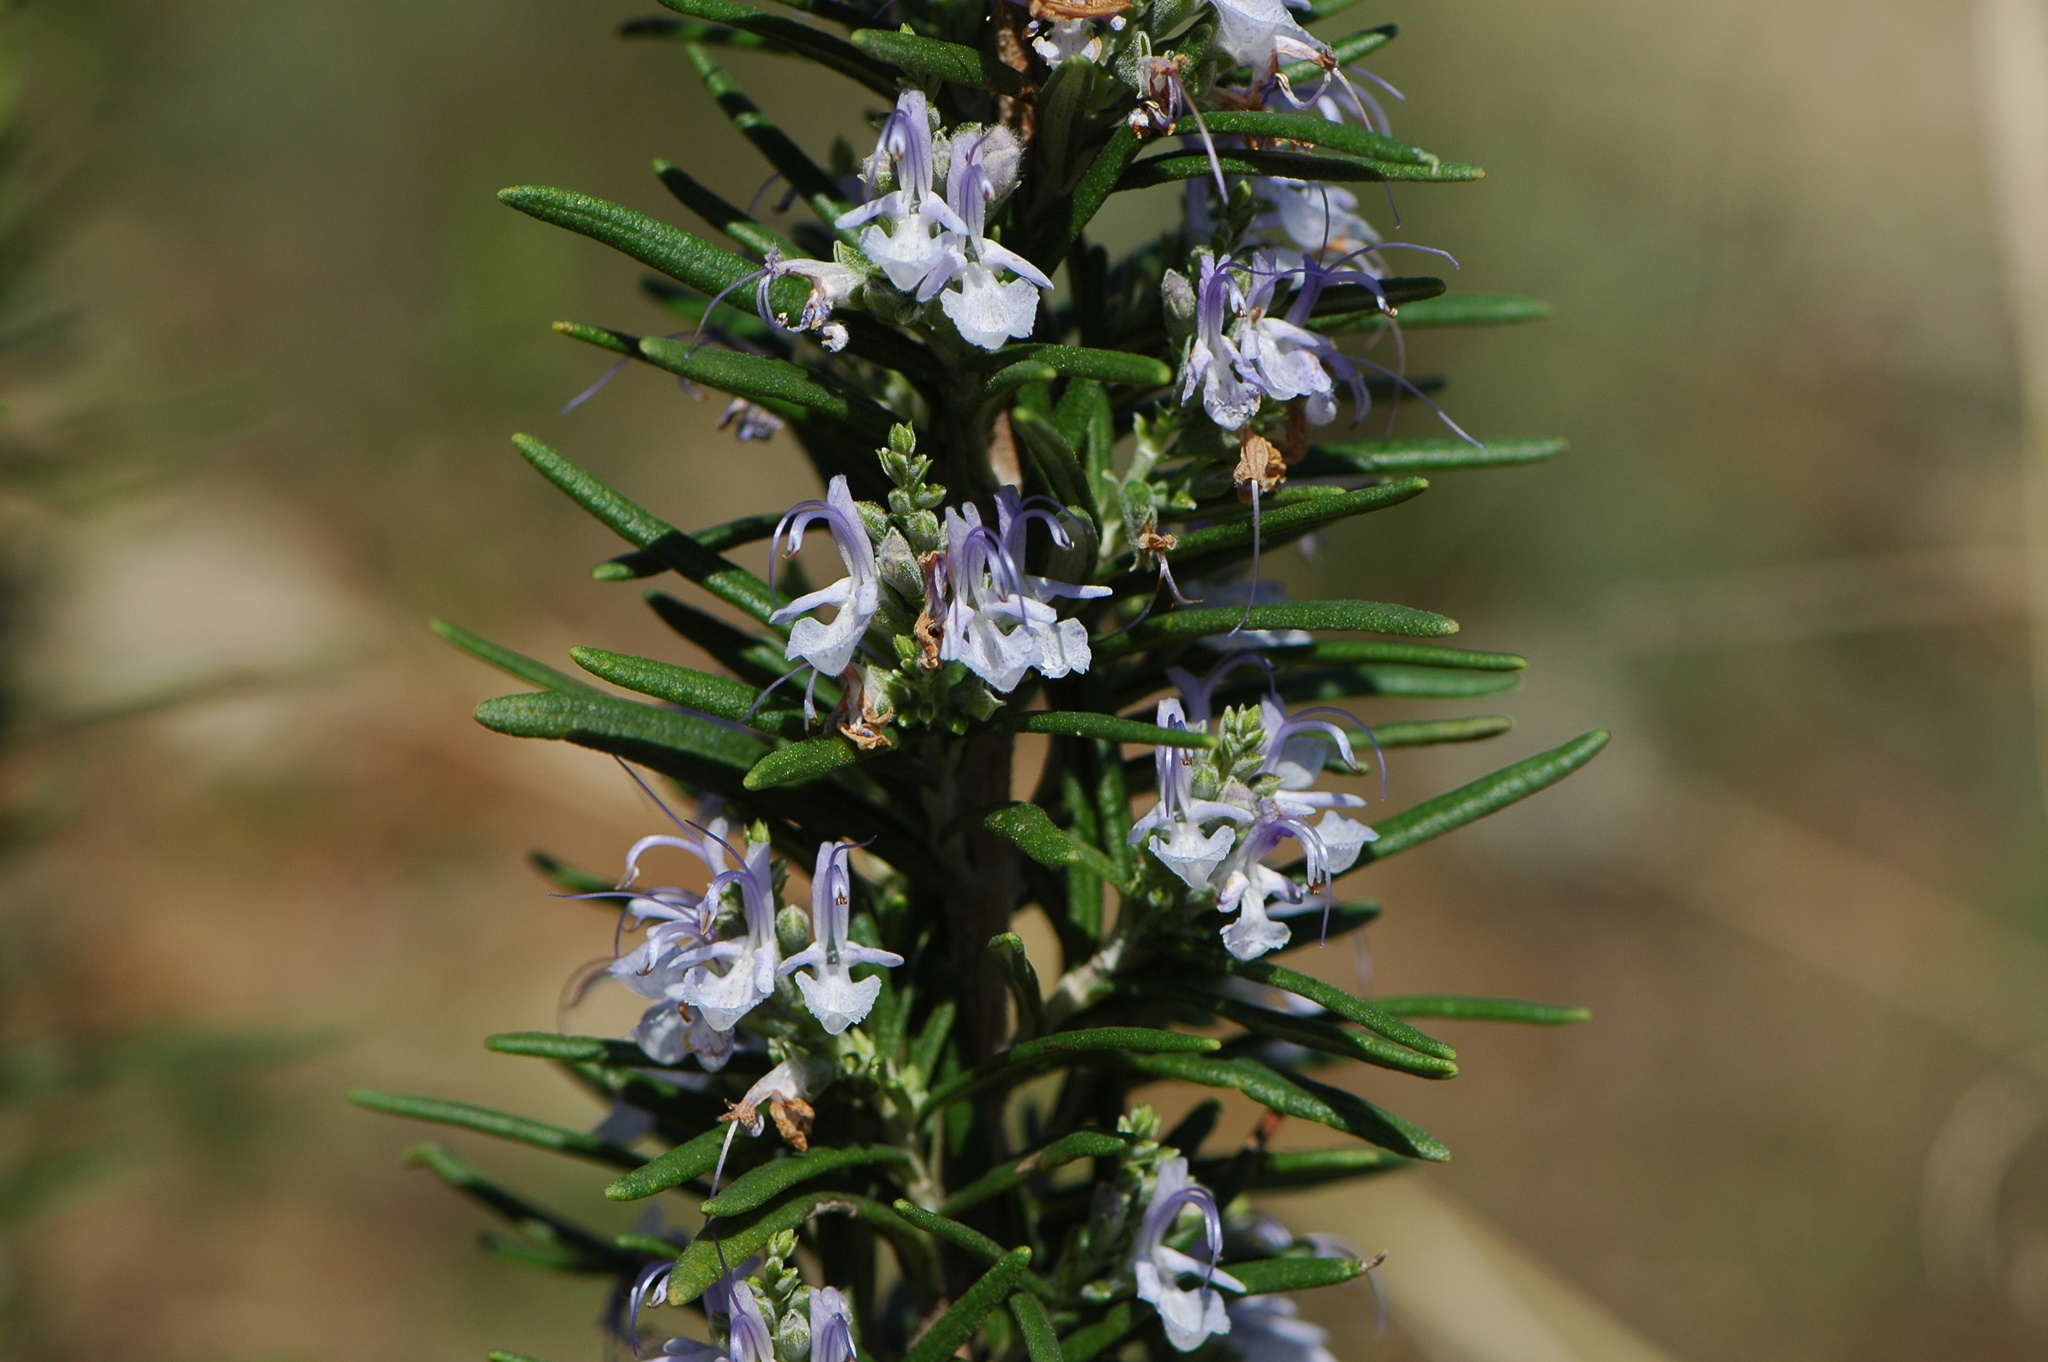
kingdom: Plantae
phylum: Tracheophyta
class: Magnoliopsida
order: Lamiales
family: Lamiaceae
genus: Salvia
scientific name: Salvia rosmarinus
